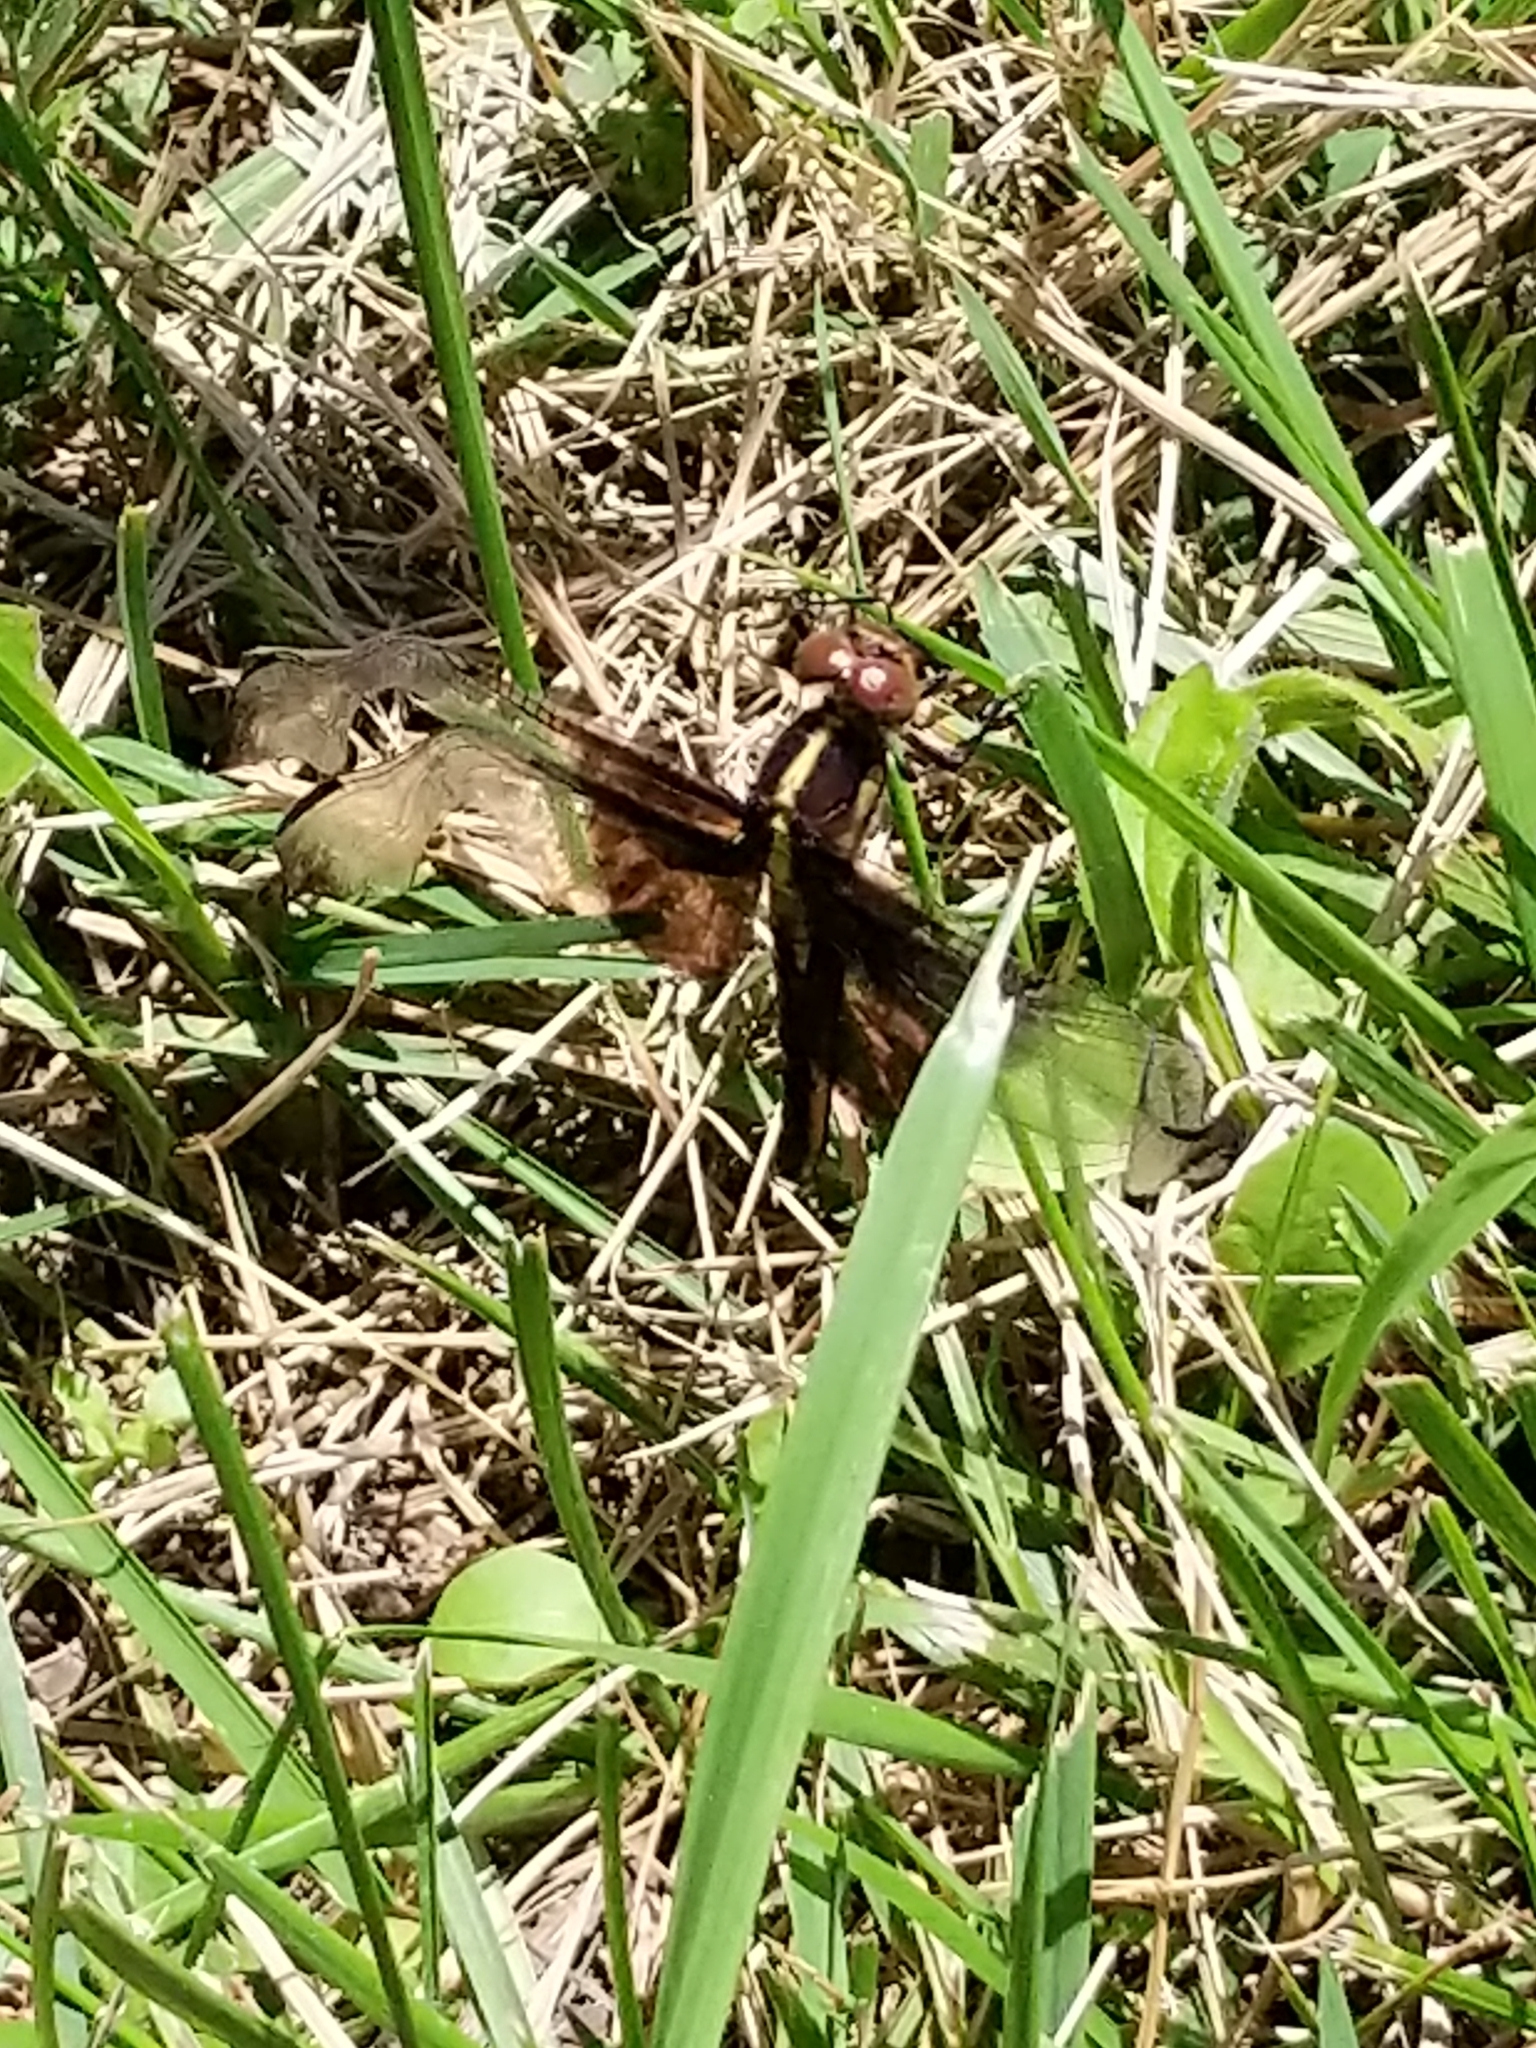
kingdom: Animalia
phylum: Arthropoda
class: Insecta
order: Odonata
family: Libellulidae
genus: Libellula
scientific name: Libellula luctuosa
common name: Widow skimmer
